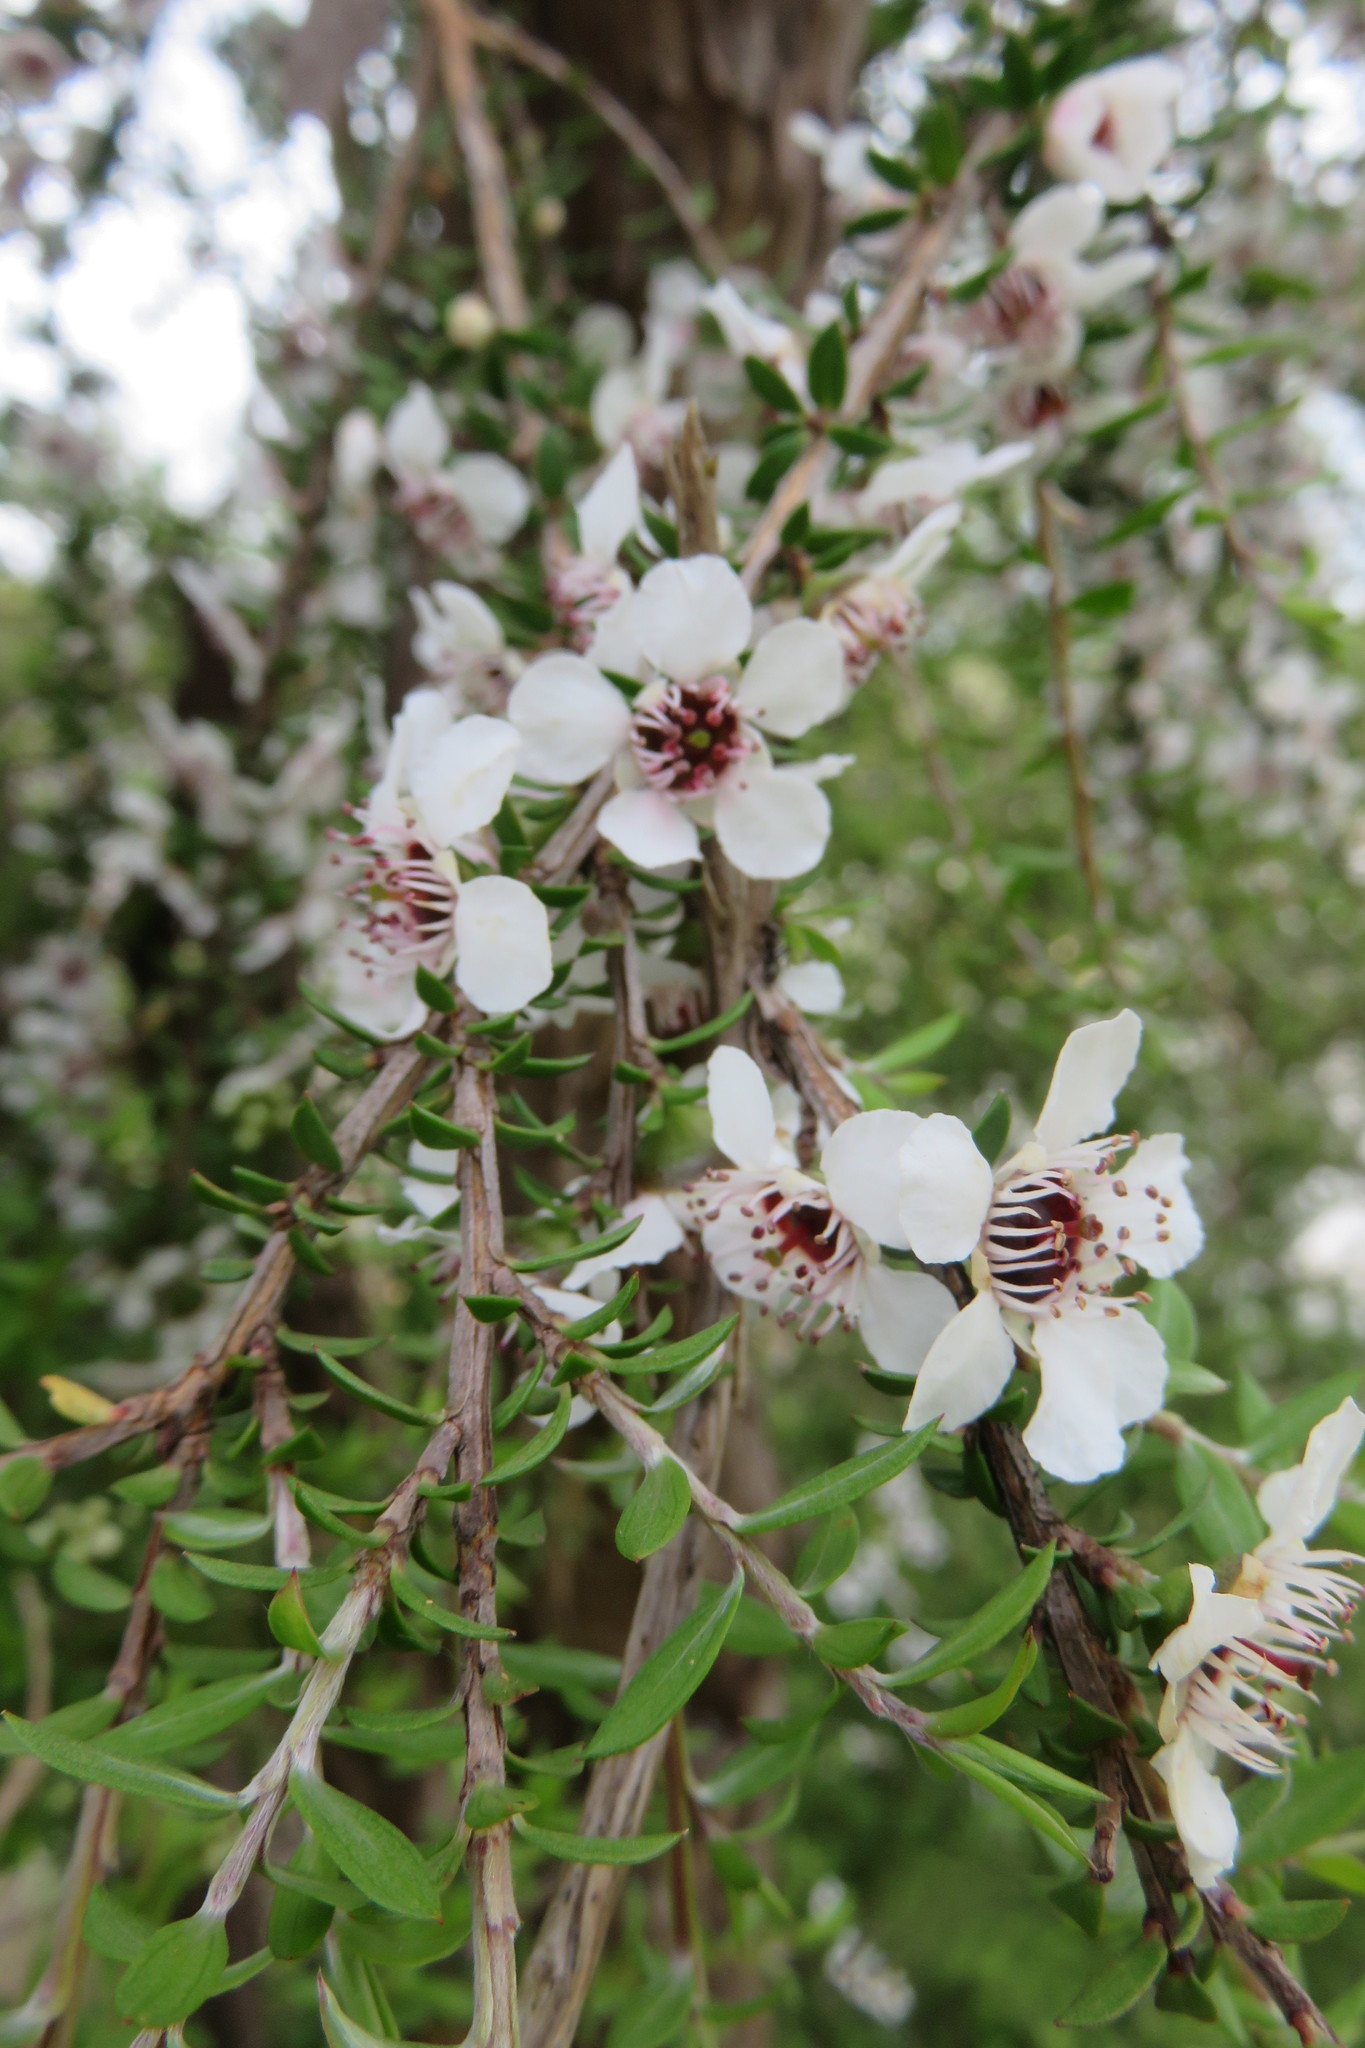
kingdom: Plantae
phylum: Tracheophyta
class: Magnoliopsida
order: Myrtales
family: Myrtaceae
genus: Leptospermum
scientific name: Leptospermum scoparium
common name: Broom tea-tree
